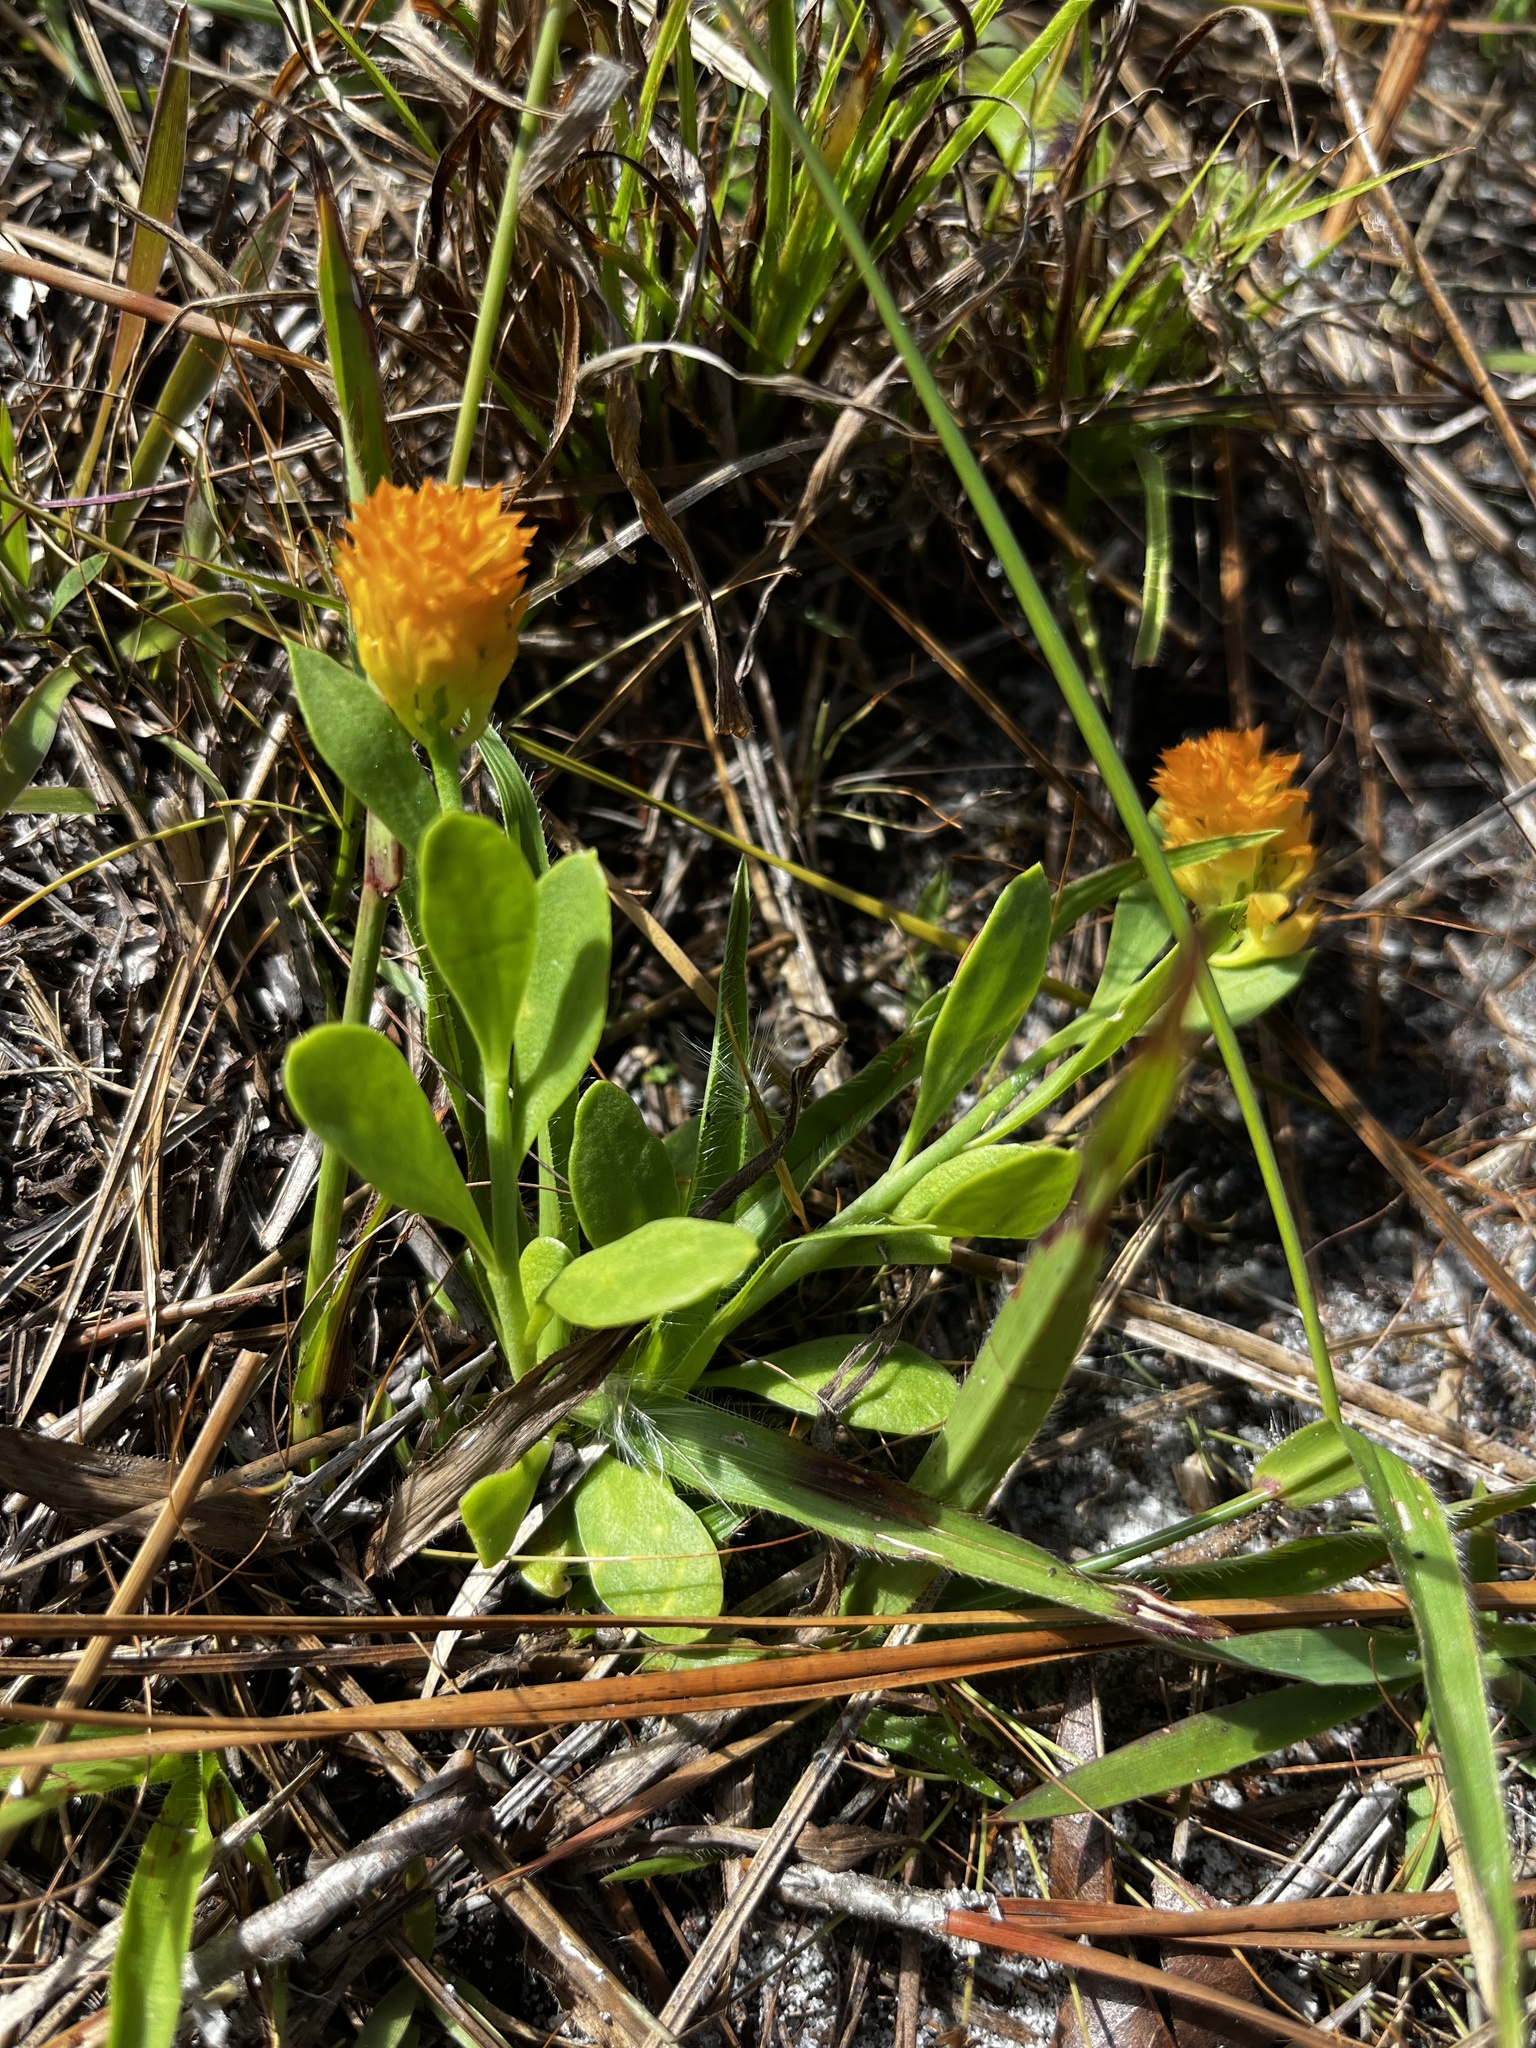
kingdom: Plantae
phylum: Tracheophyta
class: Magnoliopsida
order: Fabales
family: Polygalaceae
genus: Polygala
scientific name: Polygala lutea
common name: Orange milkwort
